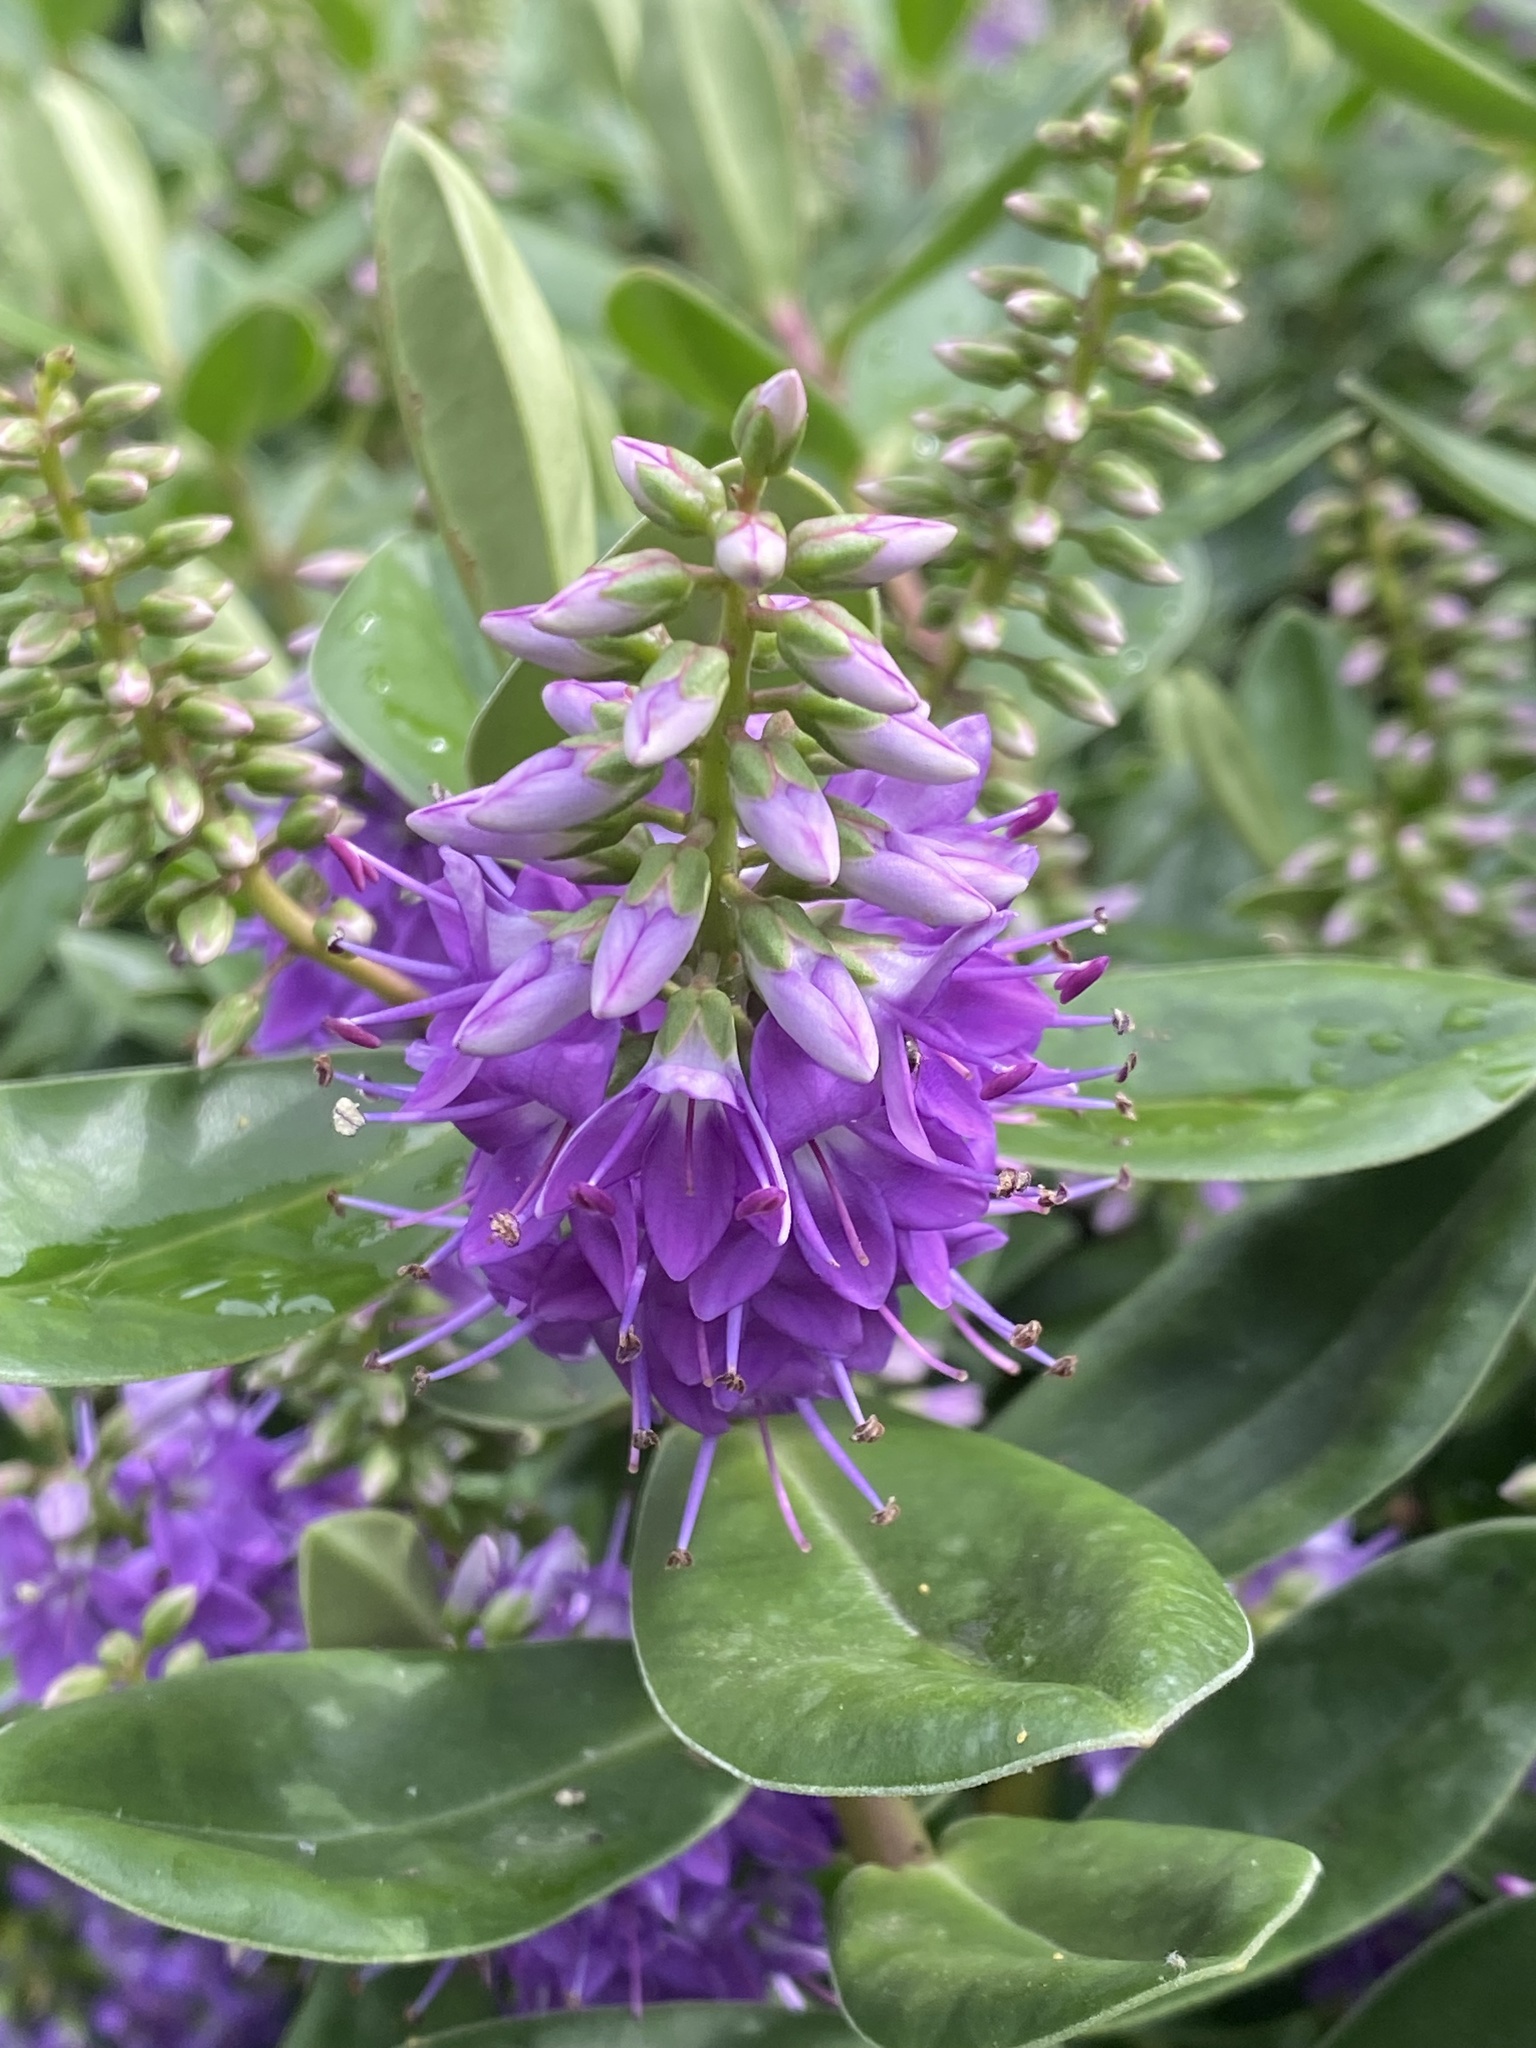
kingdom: Plantae
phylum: Tracheophyta
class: Magnoliopsida
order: Lamiales
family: Plantaginaceae
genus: Veronica
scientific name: Veronica franciscana
